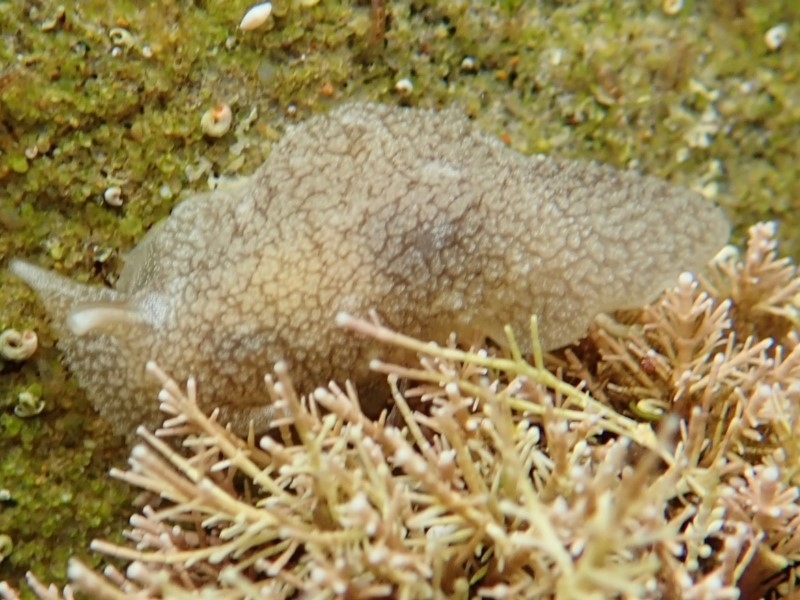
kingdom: Animalia
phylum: Mollusca
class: Gastropoda
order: Pleurobranchida
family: Pleurobranchaeidae
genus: Pleurobranchaea
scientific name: Pleurobranchaea maculata
